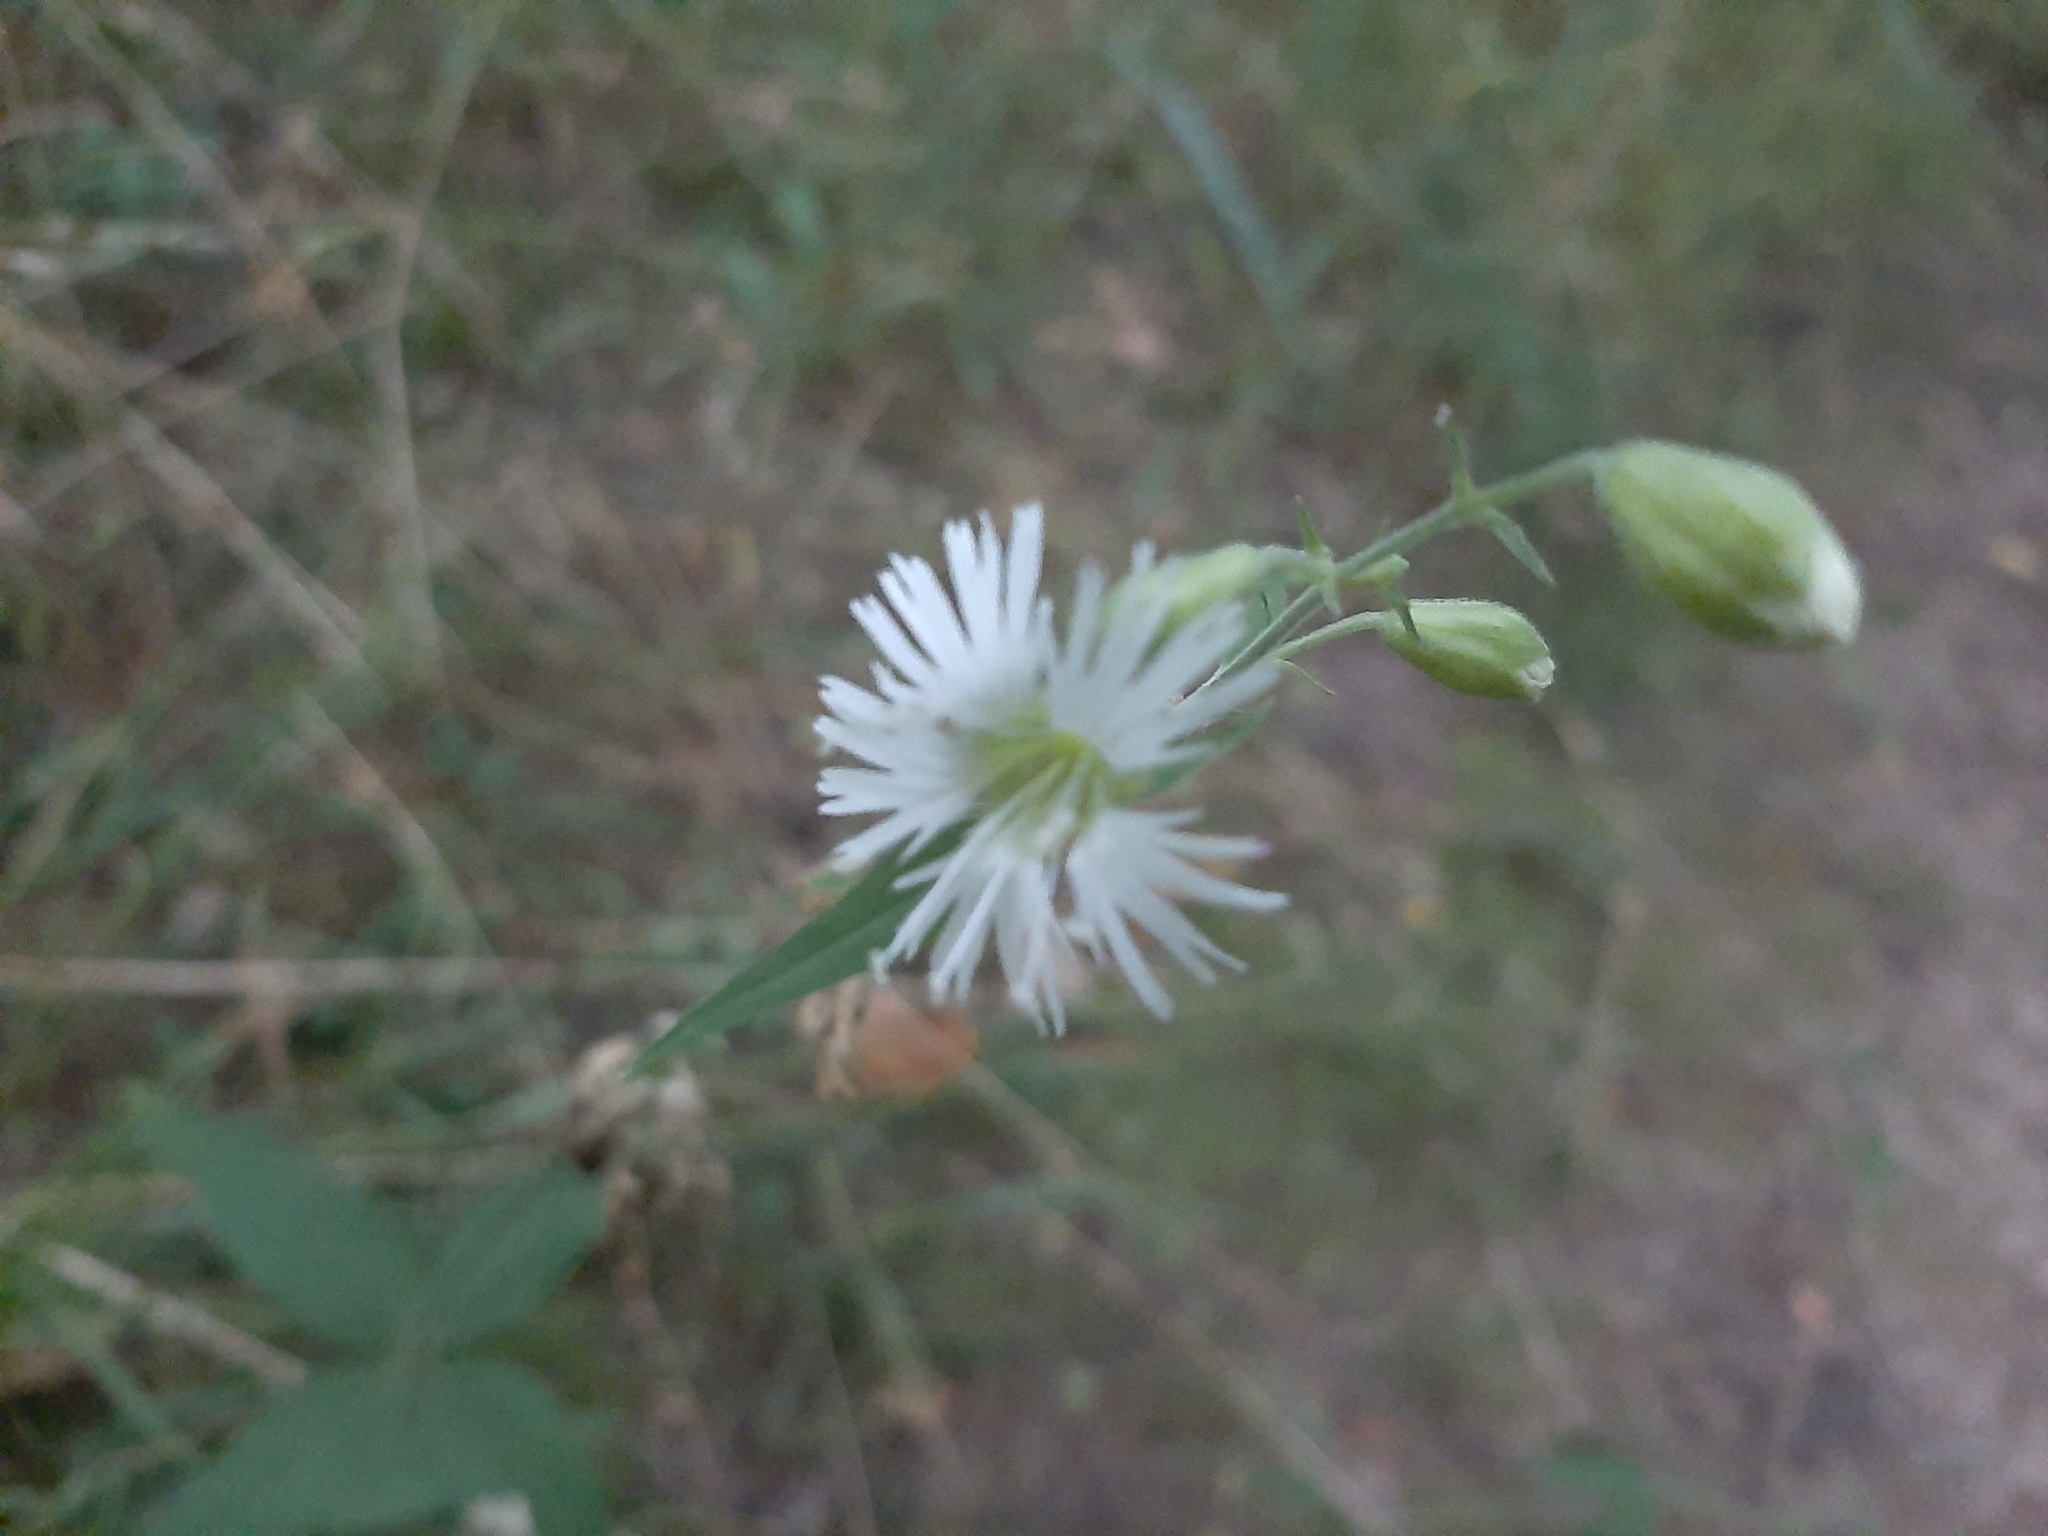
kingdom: Plantae
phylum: Tracheophyta
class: Magnoliopsida
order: Caryophyllales
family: Caryophyllaceae
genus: Silene
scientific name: Silene stellata
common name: Starry campion
